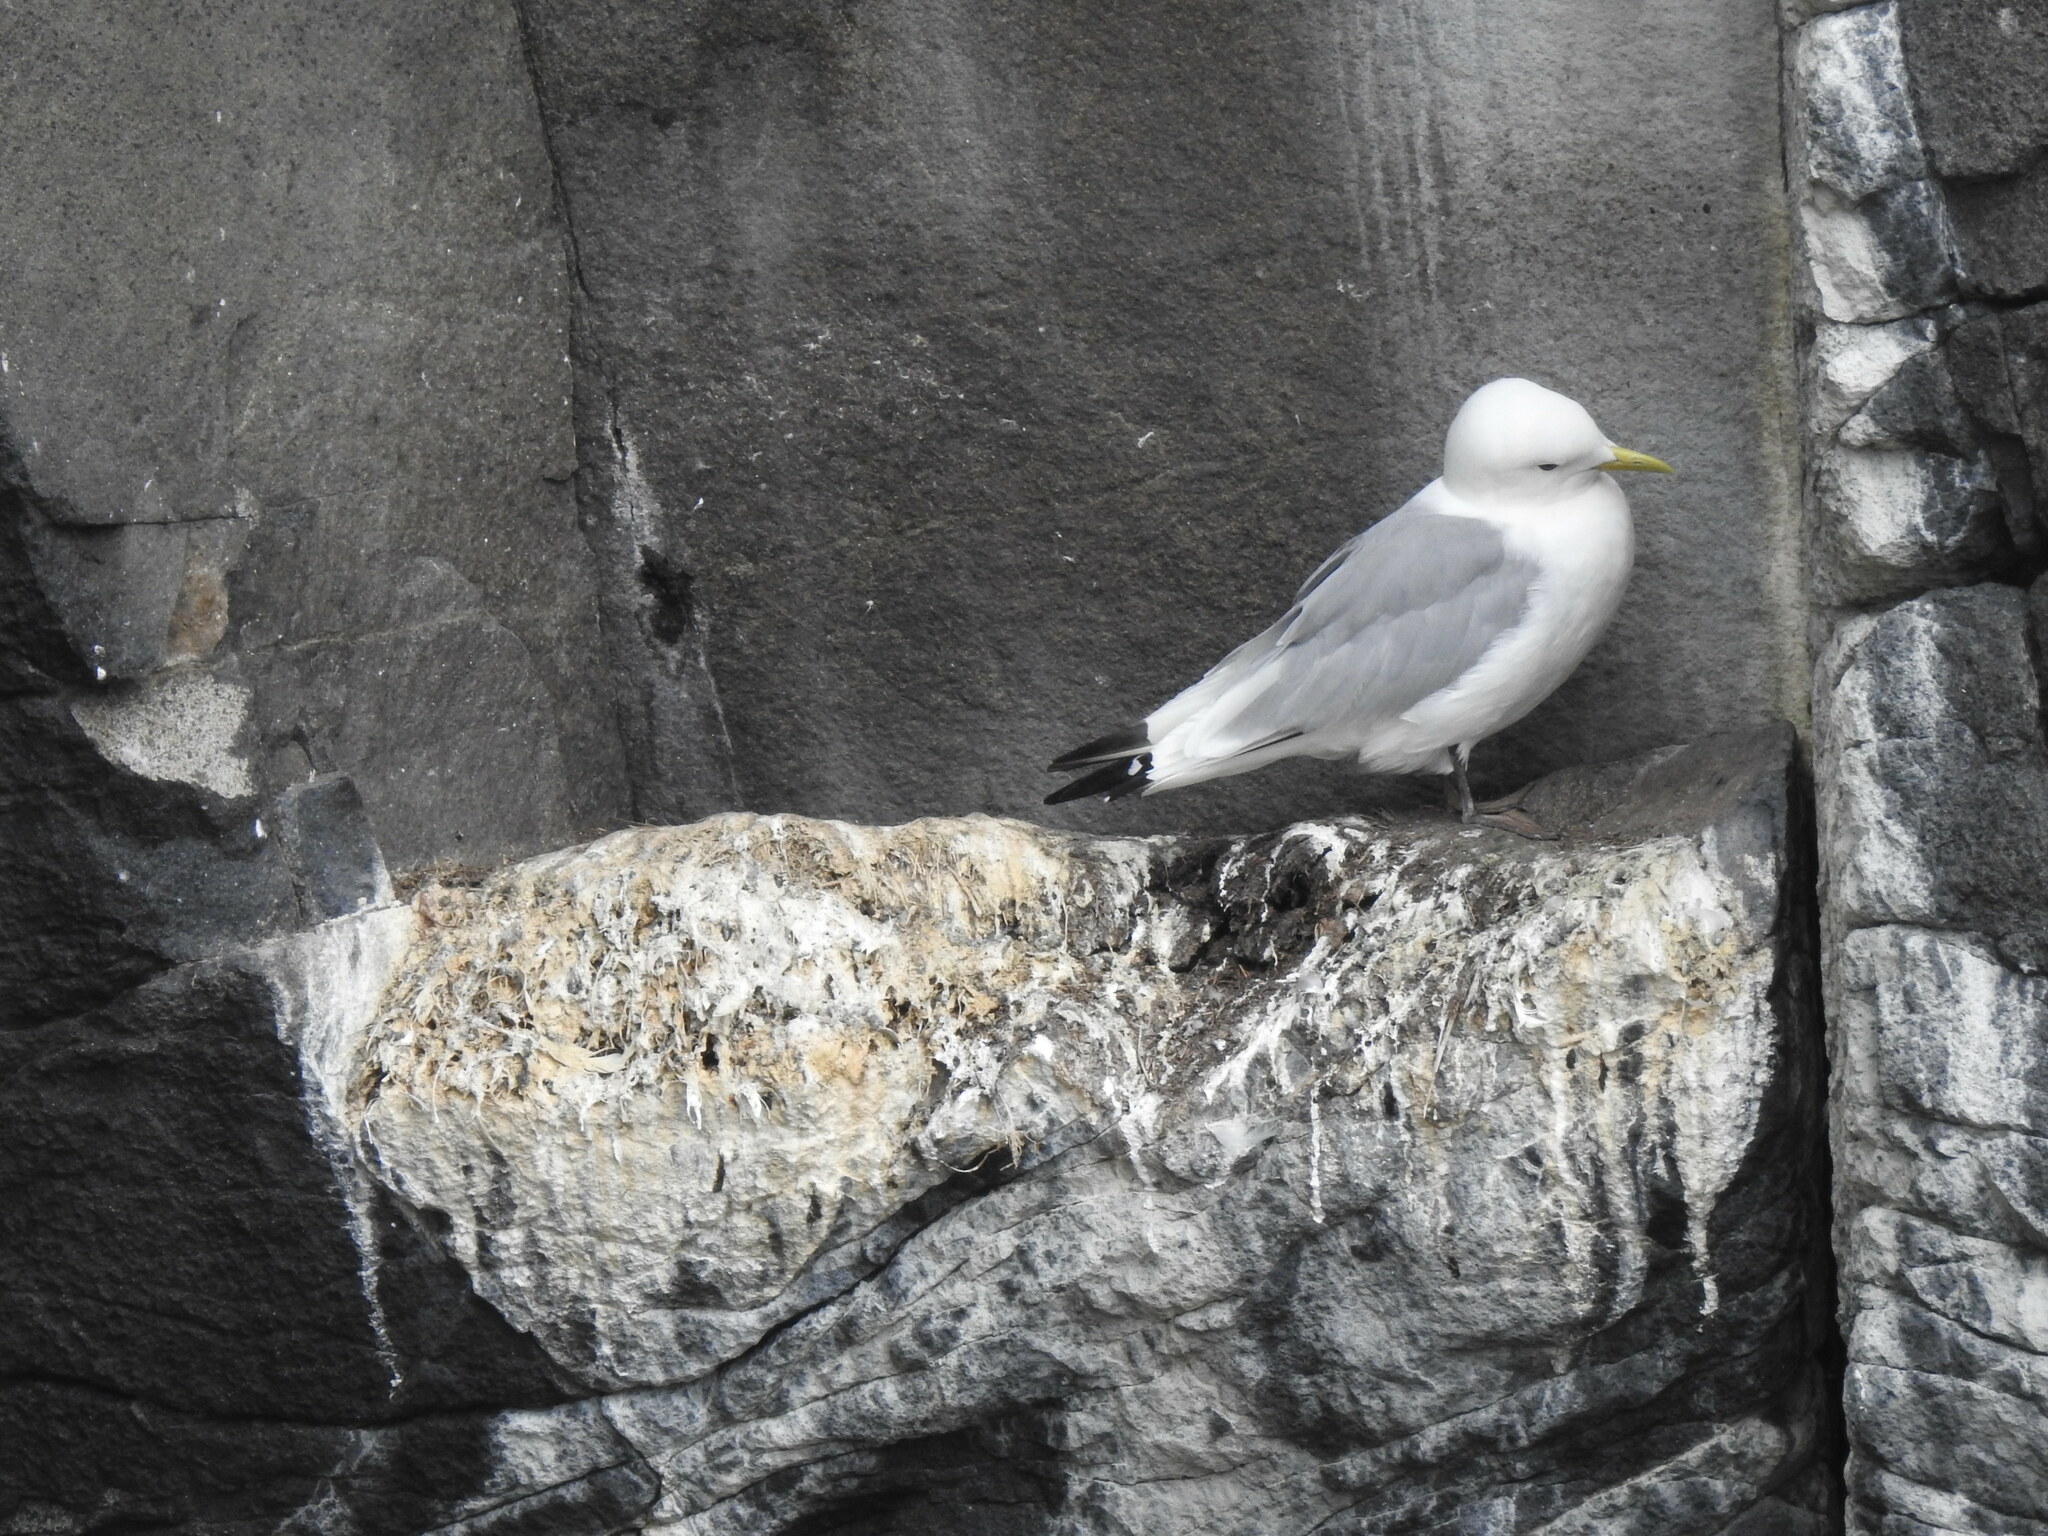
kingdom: Animalia
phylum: Chordata
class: Aves
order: Charadriiformes
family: Laridae
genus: Rissa
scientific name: Rissa tridactyla
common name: Black-legged kittiwake
